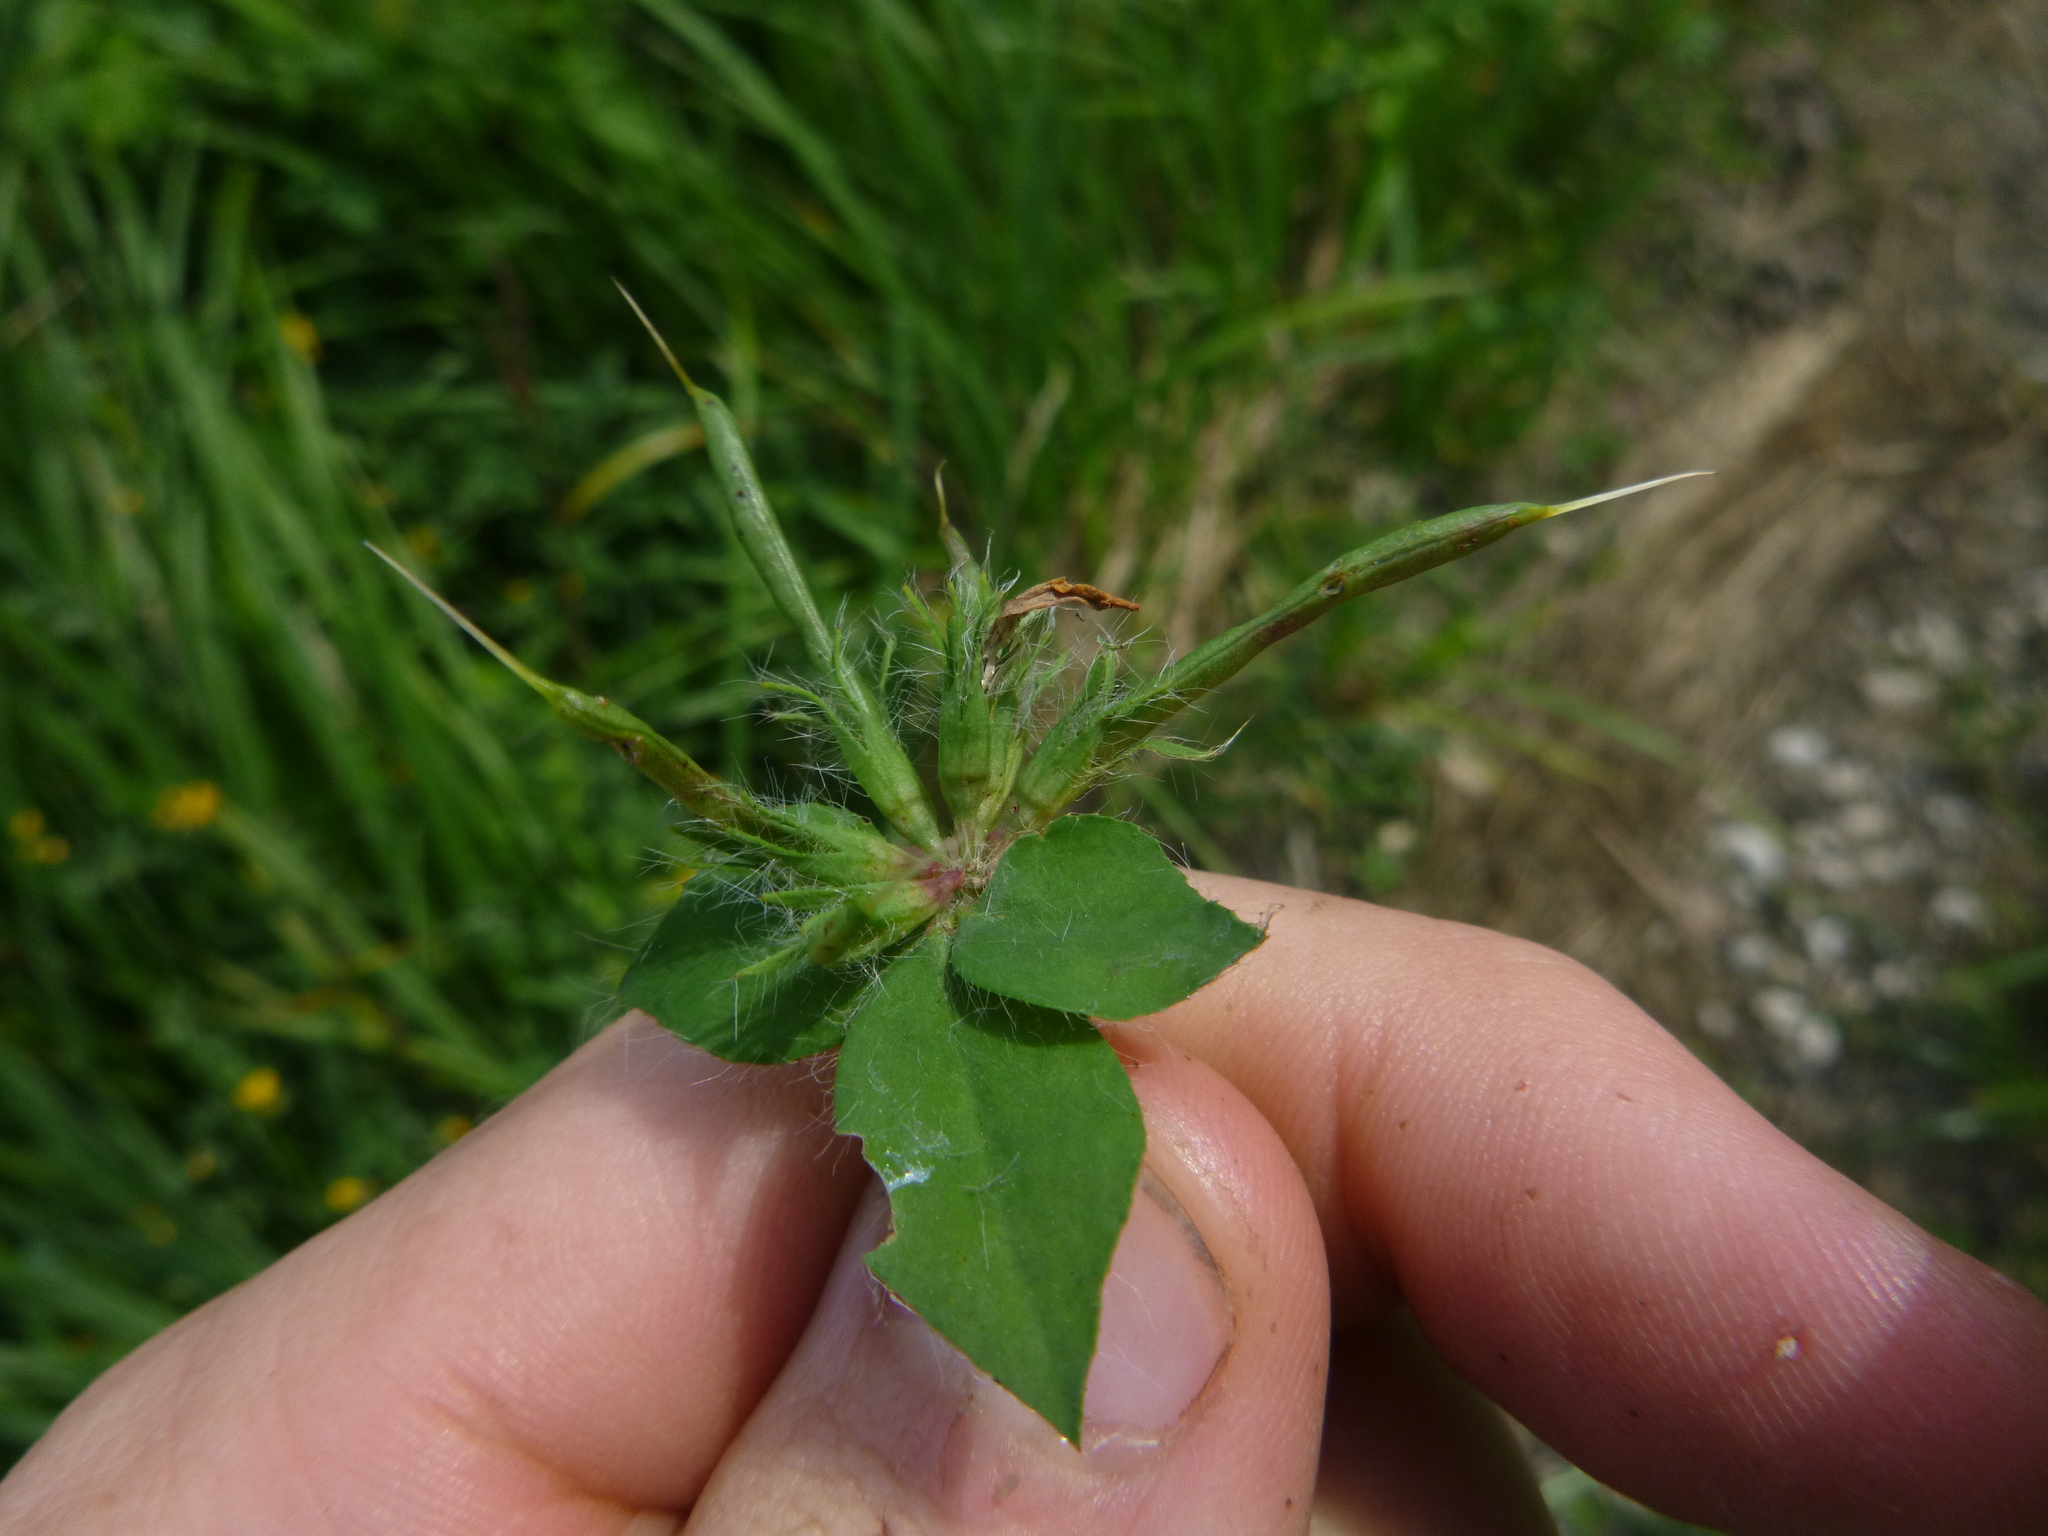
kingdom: Plantae
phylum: Tracheophyta
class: Magnoliopsida
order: Fabales
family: Fabaceae
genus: Lotus
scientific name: Lotus pedunculatus
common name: Greater birdsfoot-trefoil
